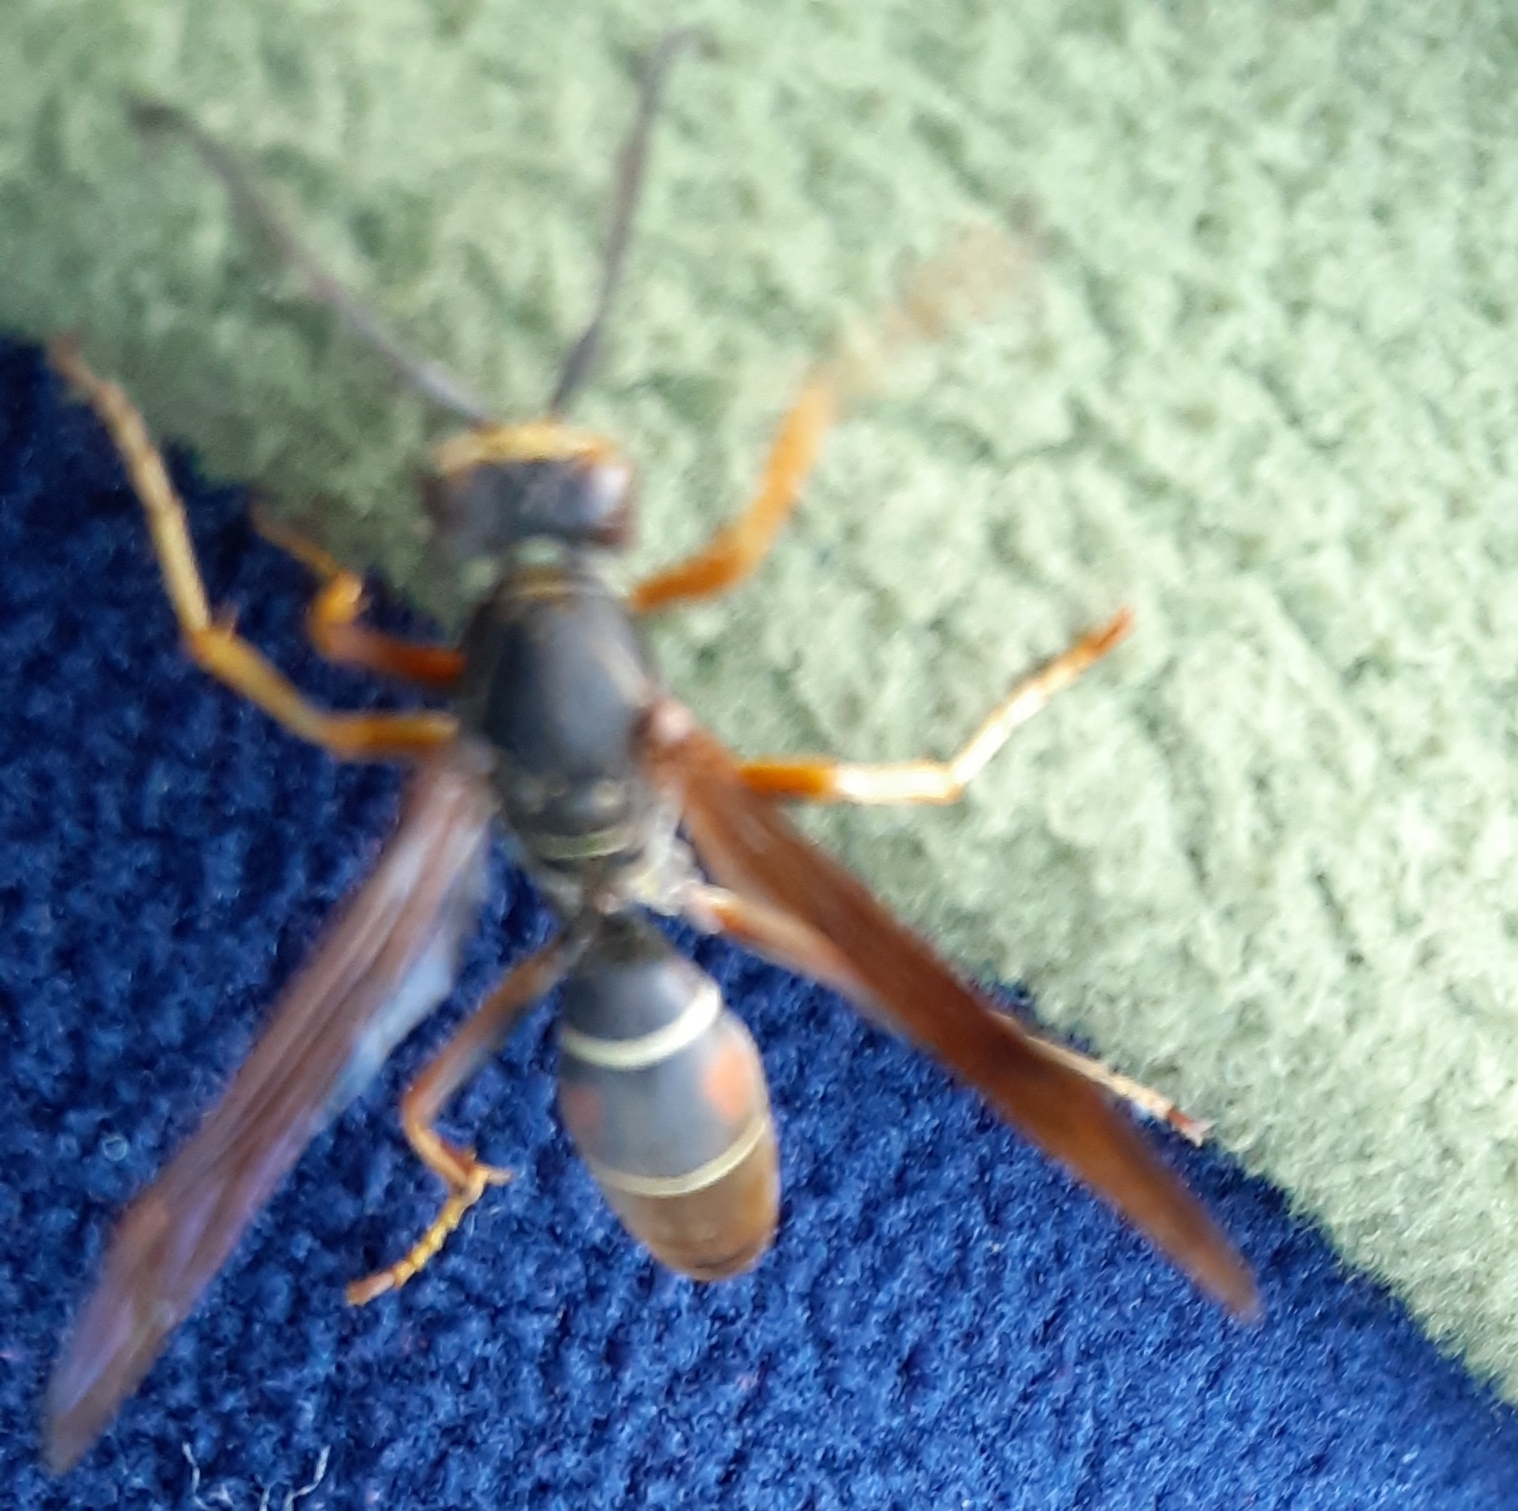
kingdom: Animalia
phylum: Arthropoda
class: Insecta
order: Hymenoptera
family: Eumenidae
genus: Polistes
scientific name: Polistes fuscatus
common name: Dark paper wasp
